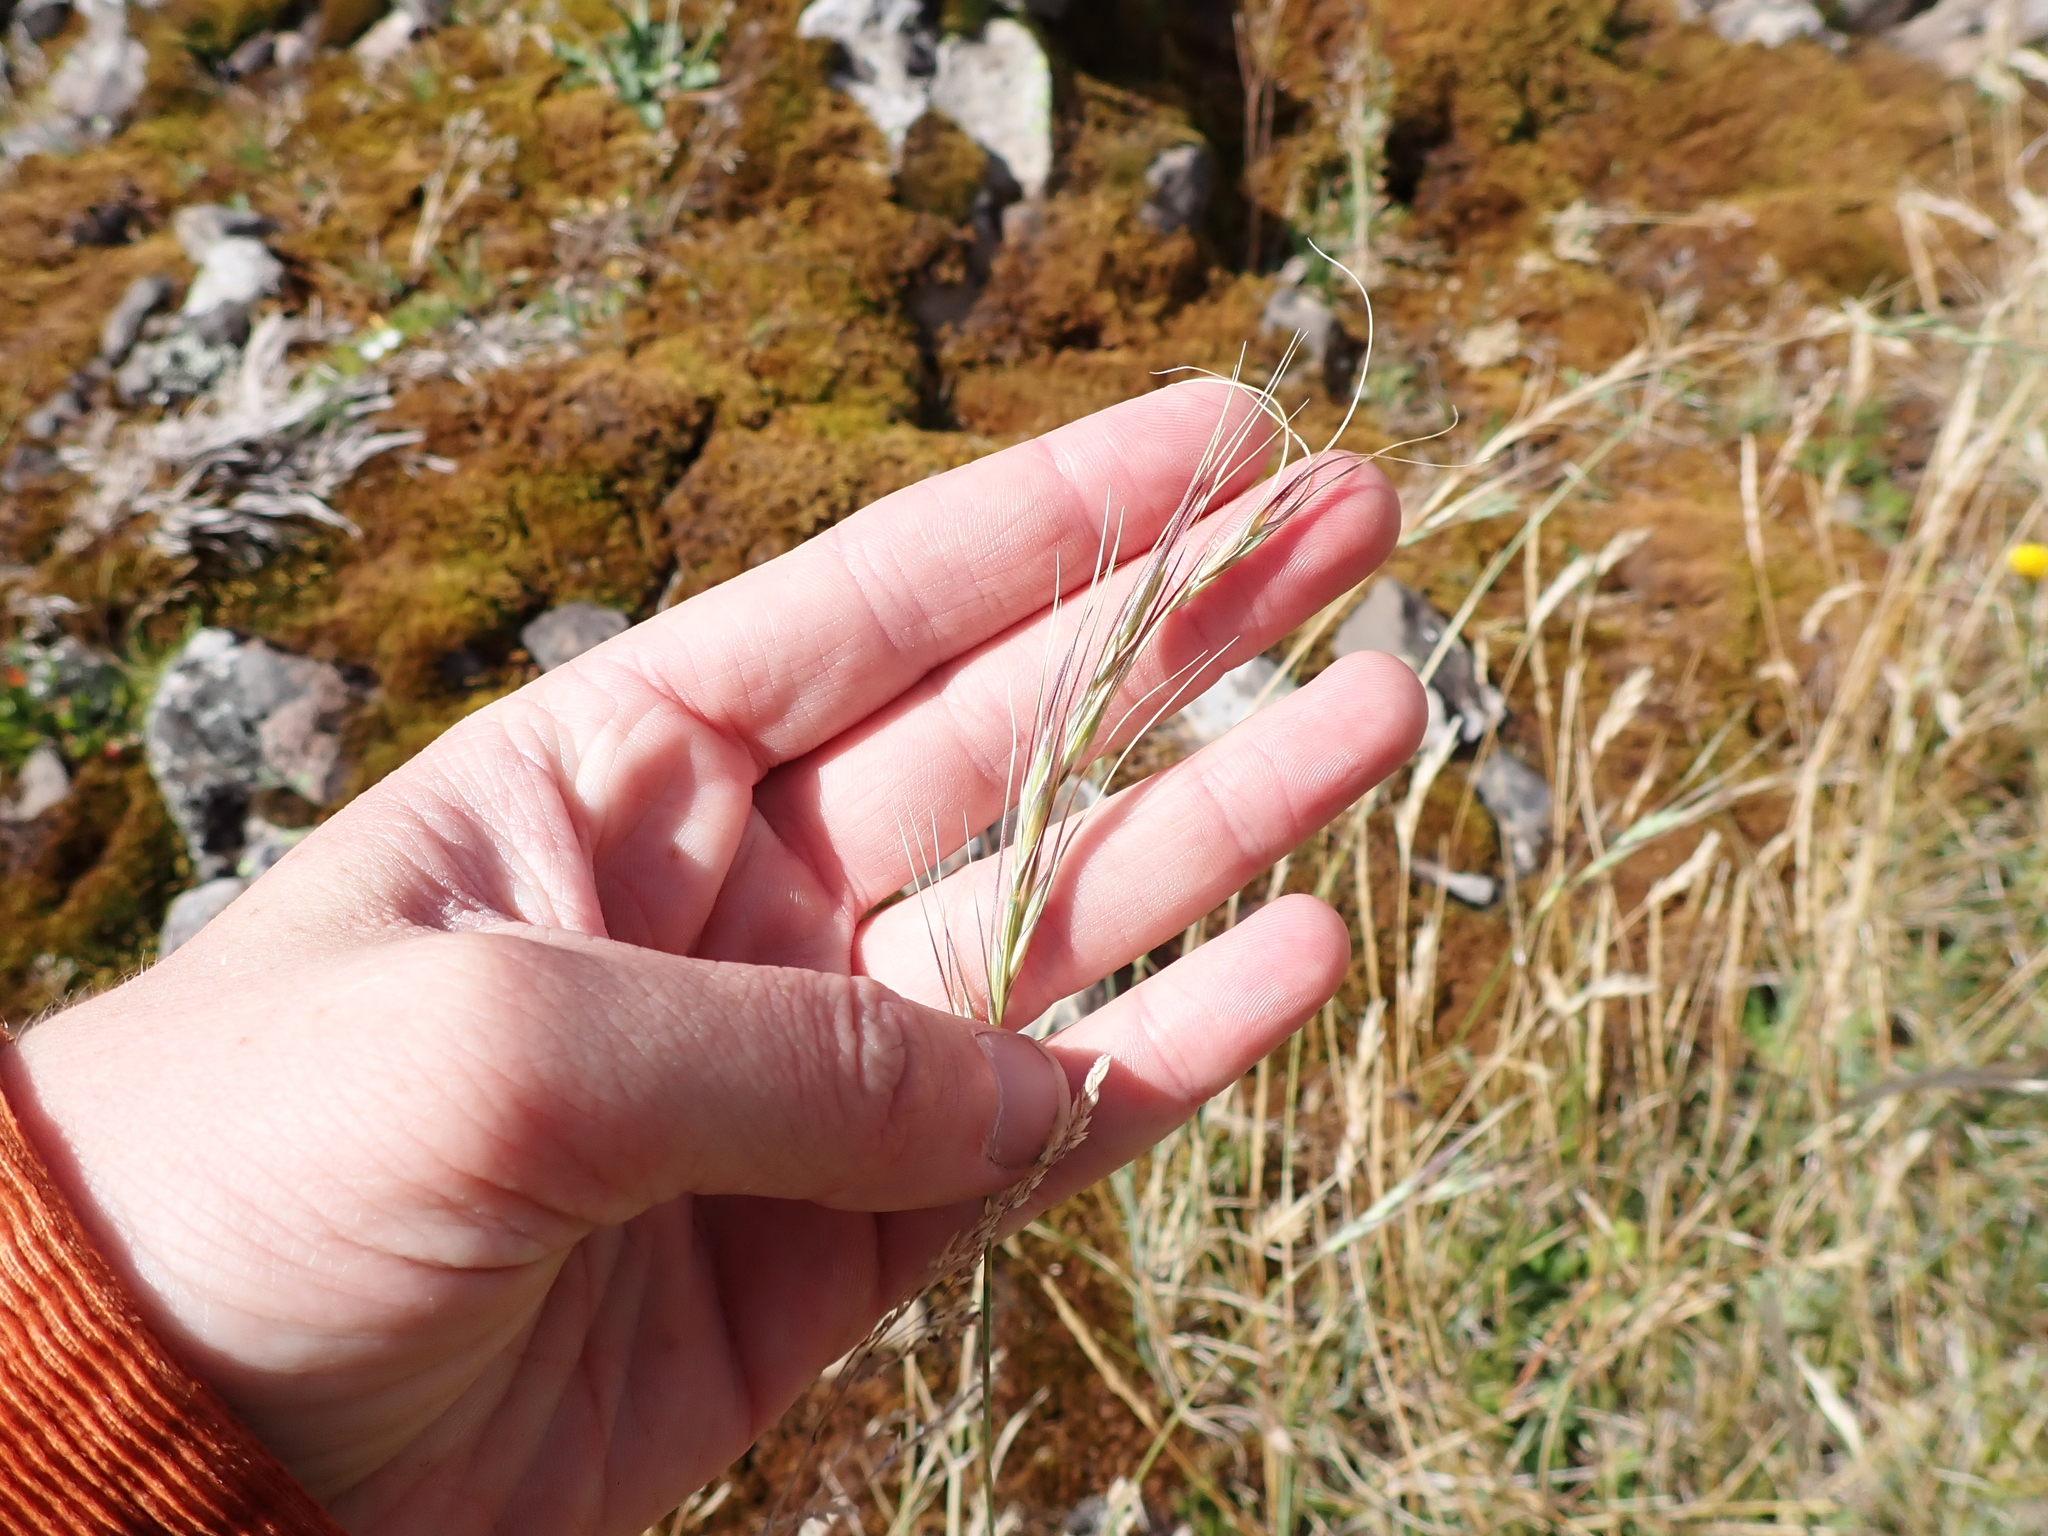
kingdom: Plantae
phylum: Tracheophyta
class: Liliopsida
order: Poales
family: Poaceae
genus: Anthosachne
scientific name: Anthosachne scabra
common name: Common wheatgrass
